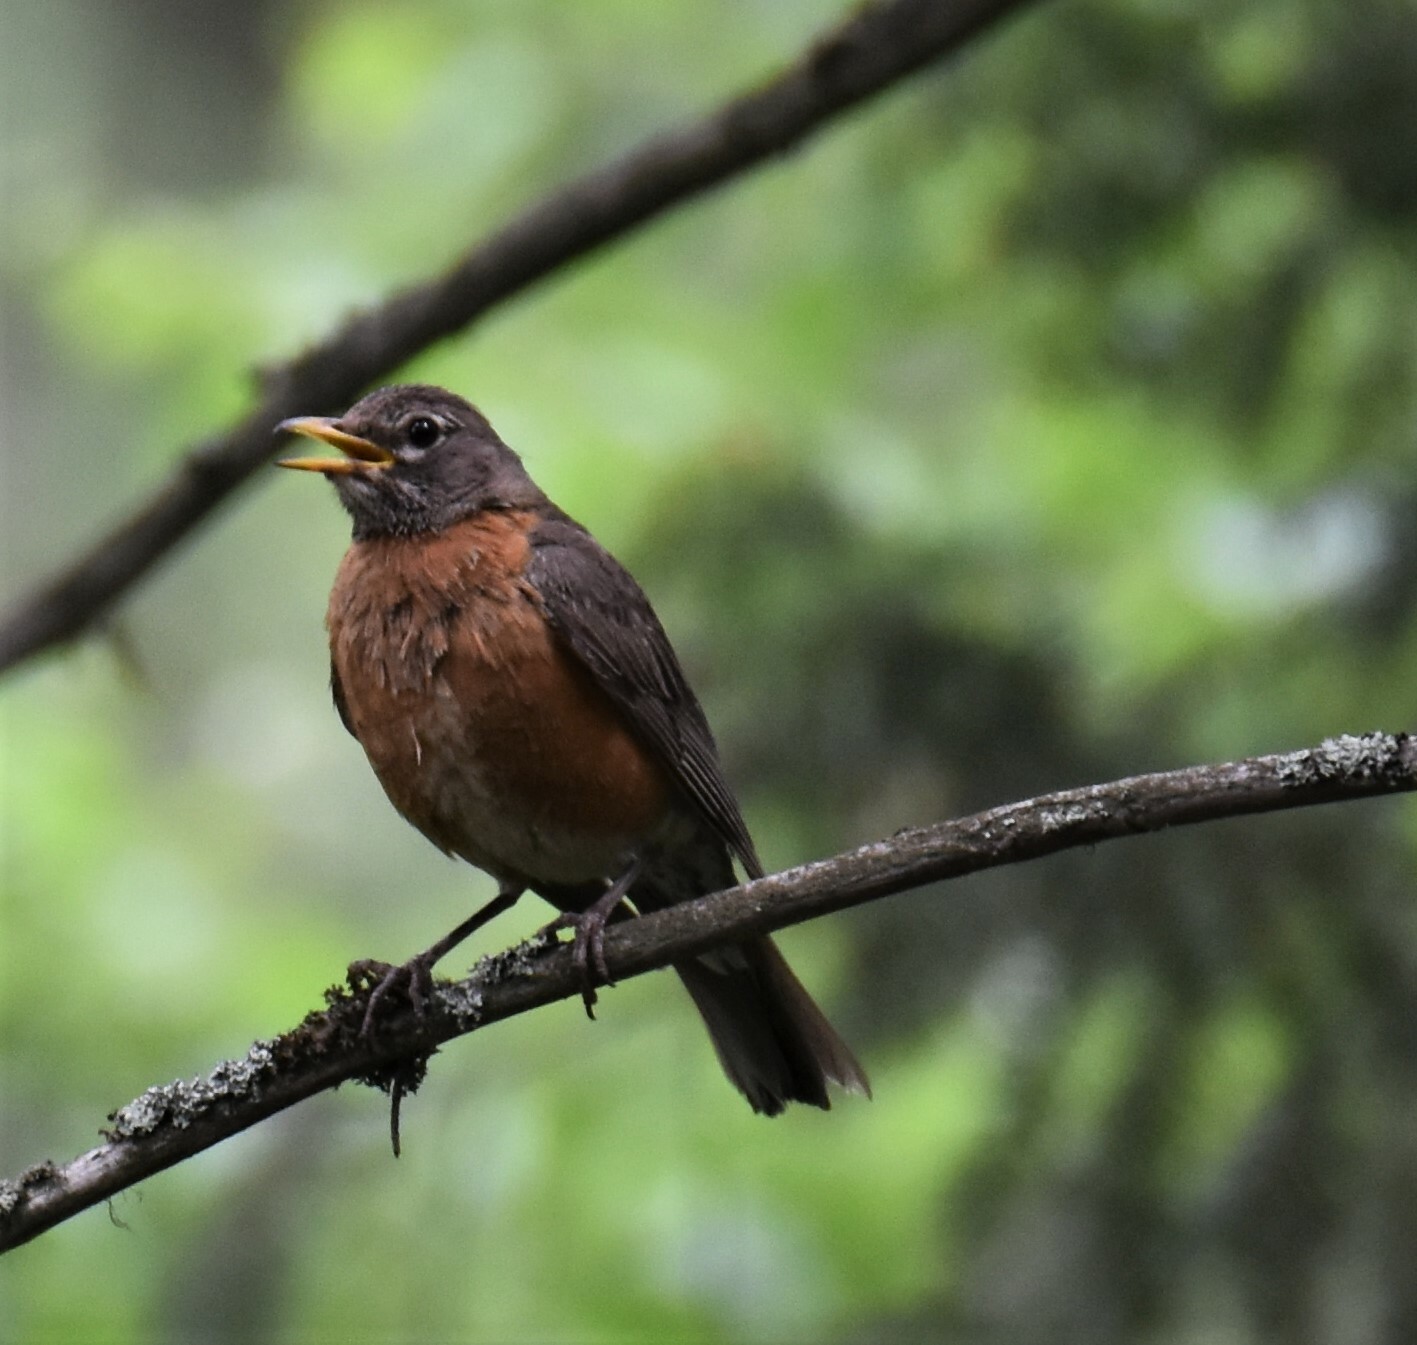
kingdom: Animalia
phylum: Chordata
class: Aves
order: Passeriformes
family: Turdidae
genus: Turdus
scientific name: Turdus migratorius
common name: American robin
